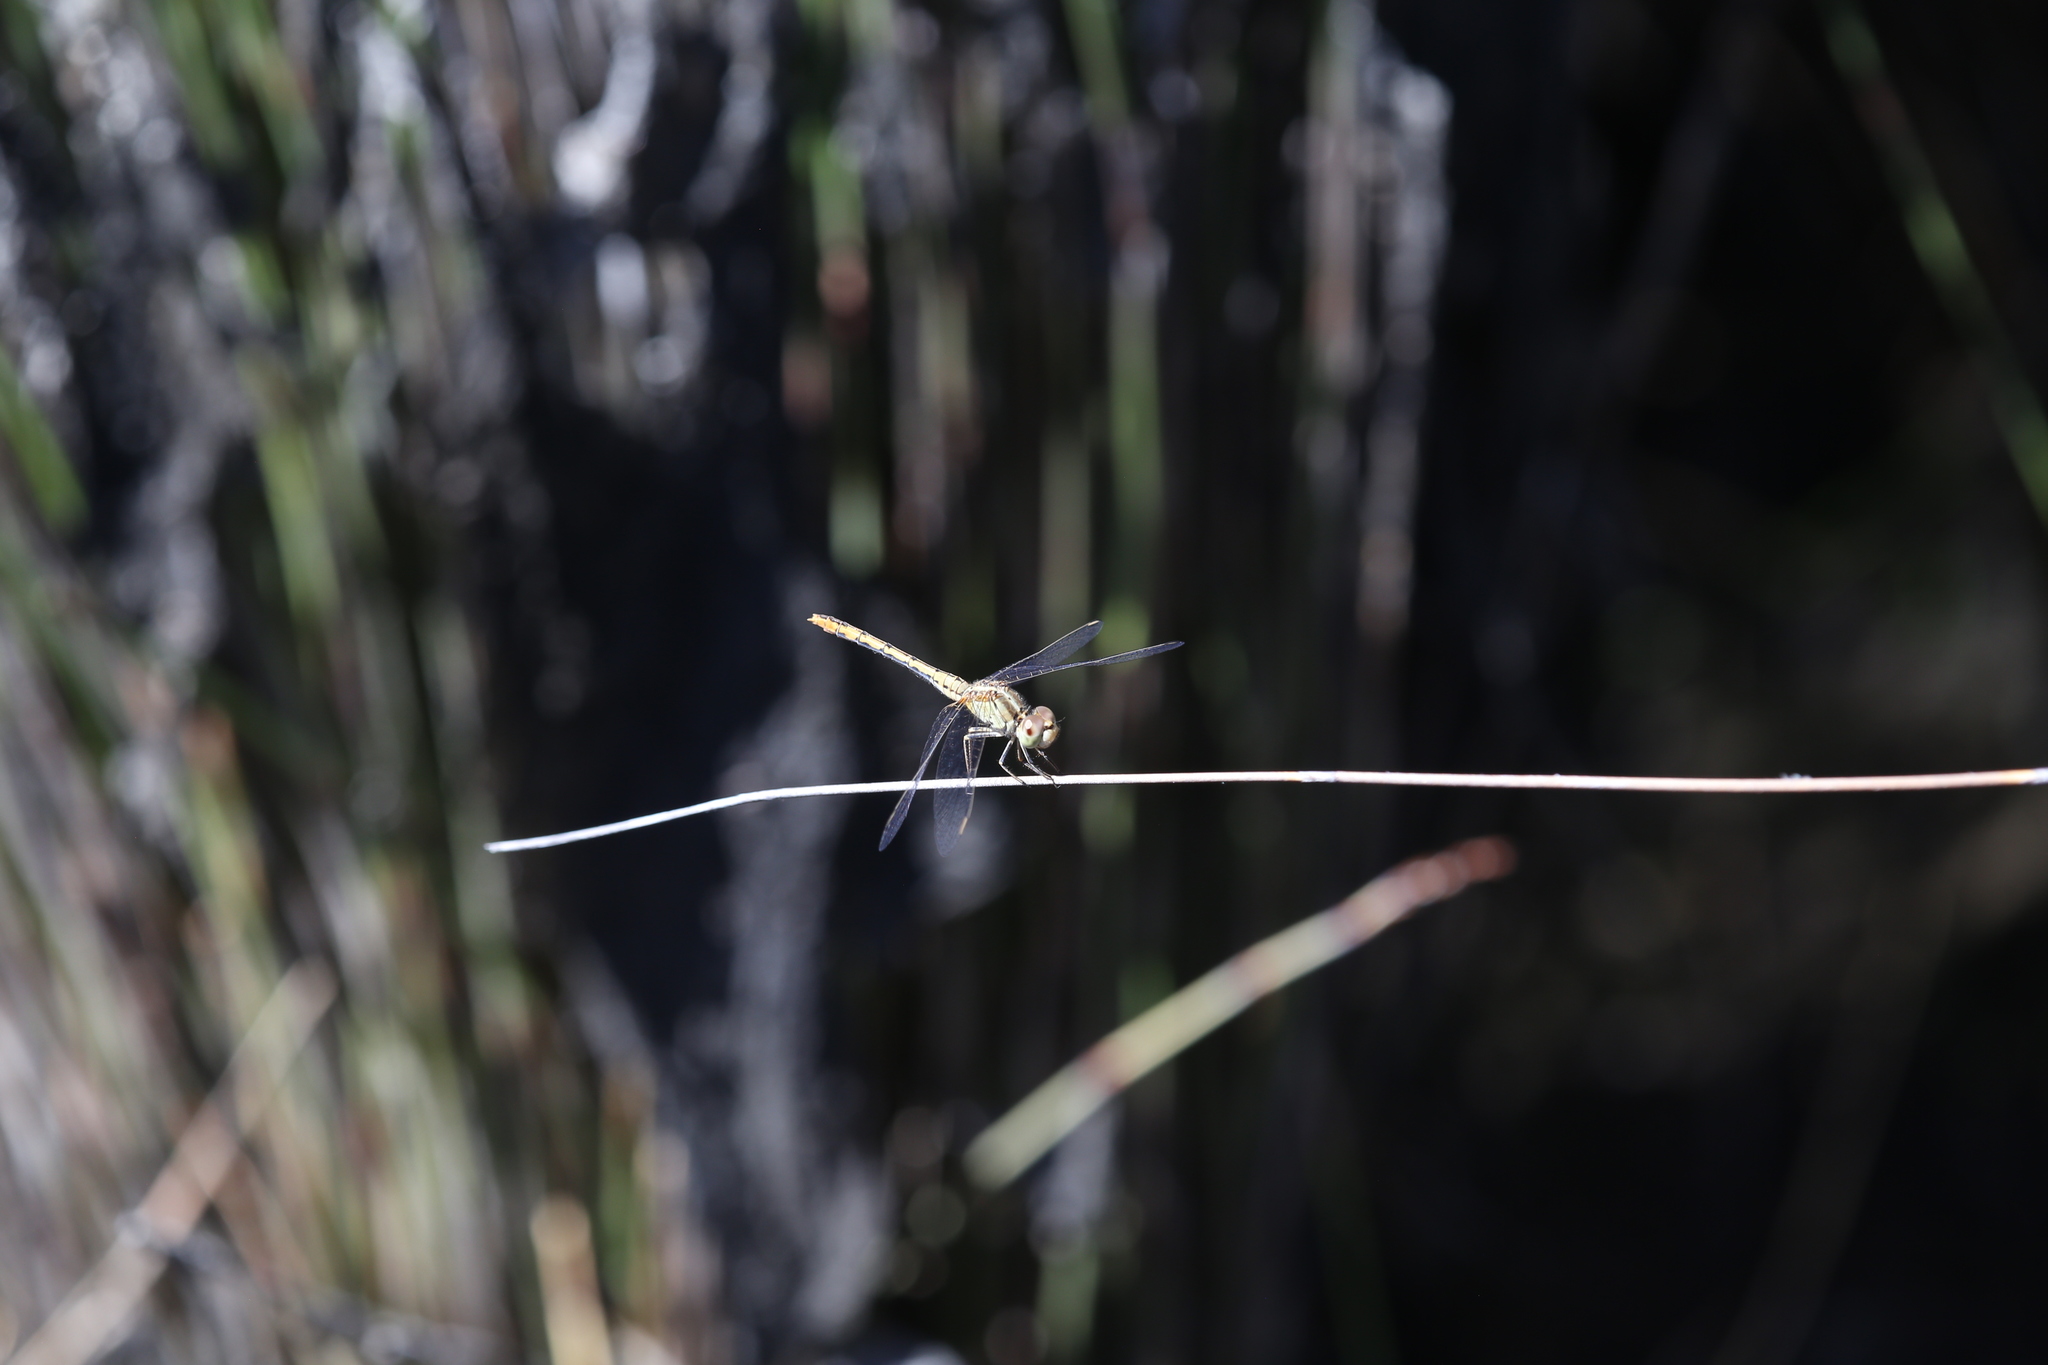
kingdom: Animalia
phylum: Arthropoda
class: Insecta
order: Odonata
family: Libellulidae
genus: Diplacodes
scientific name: Diplacodes bipunctata
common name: Red percher dragonfly
